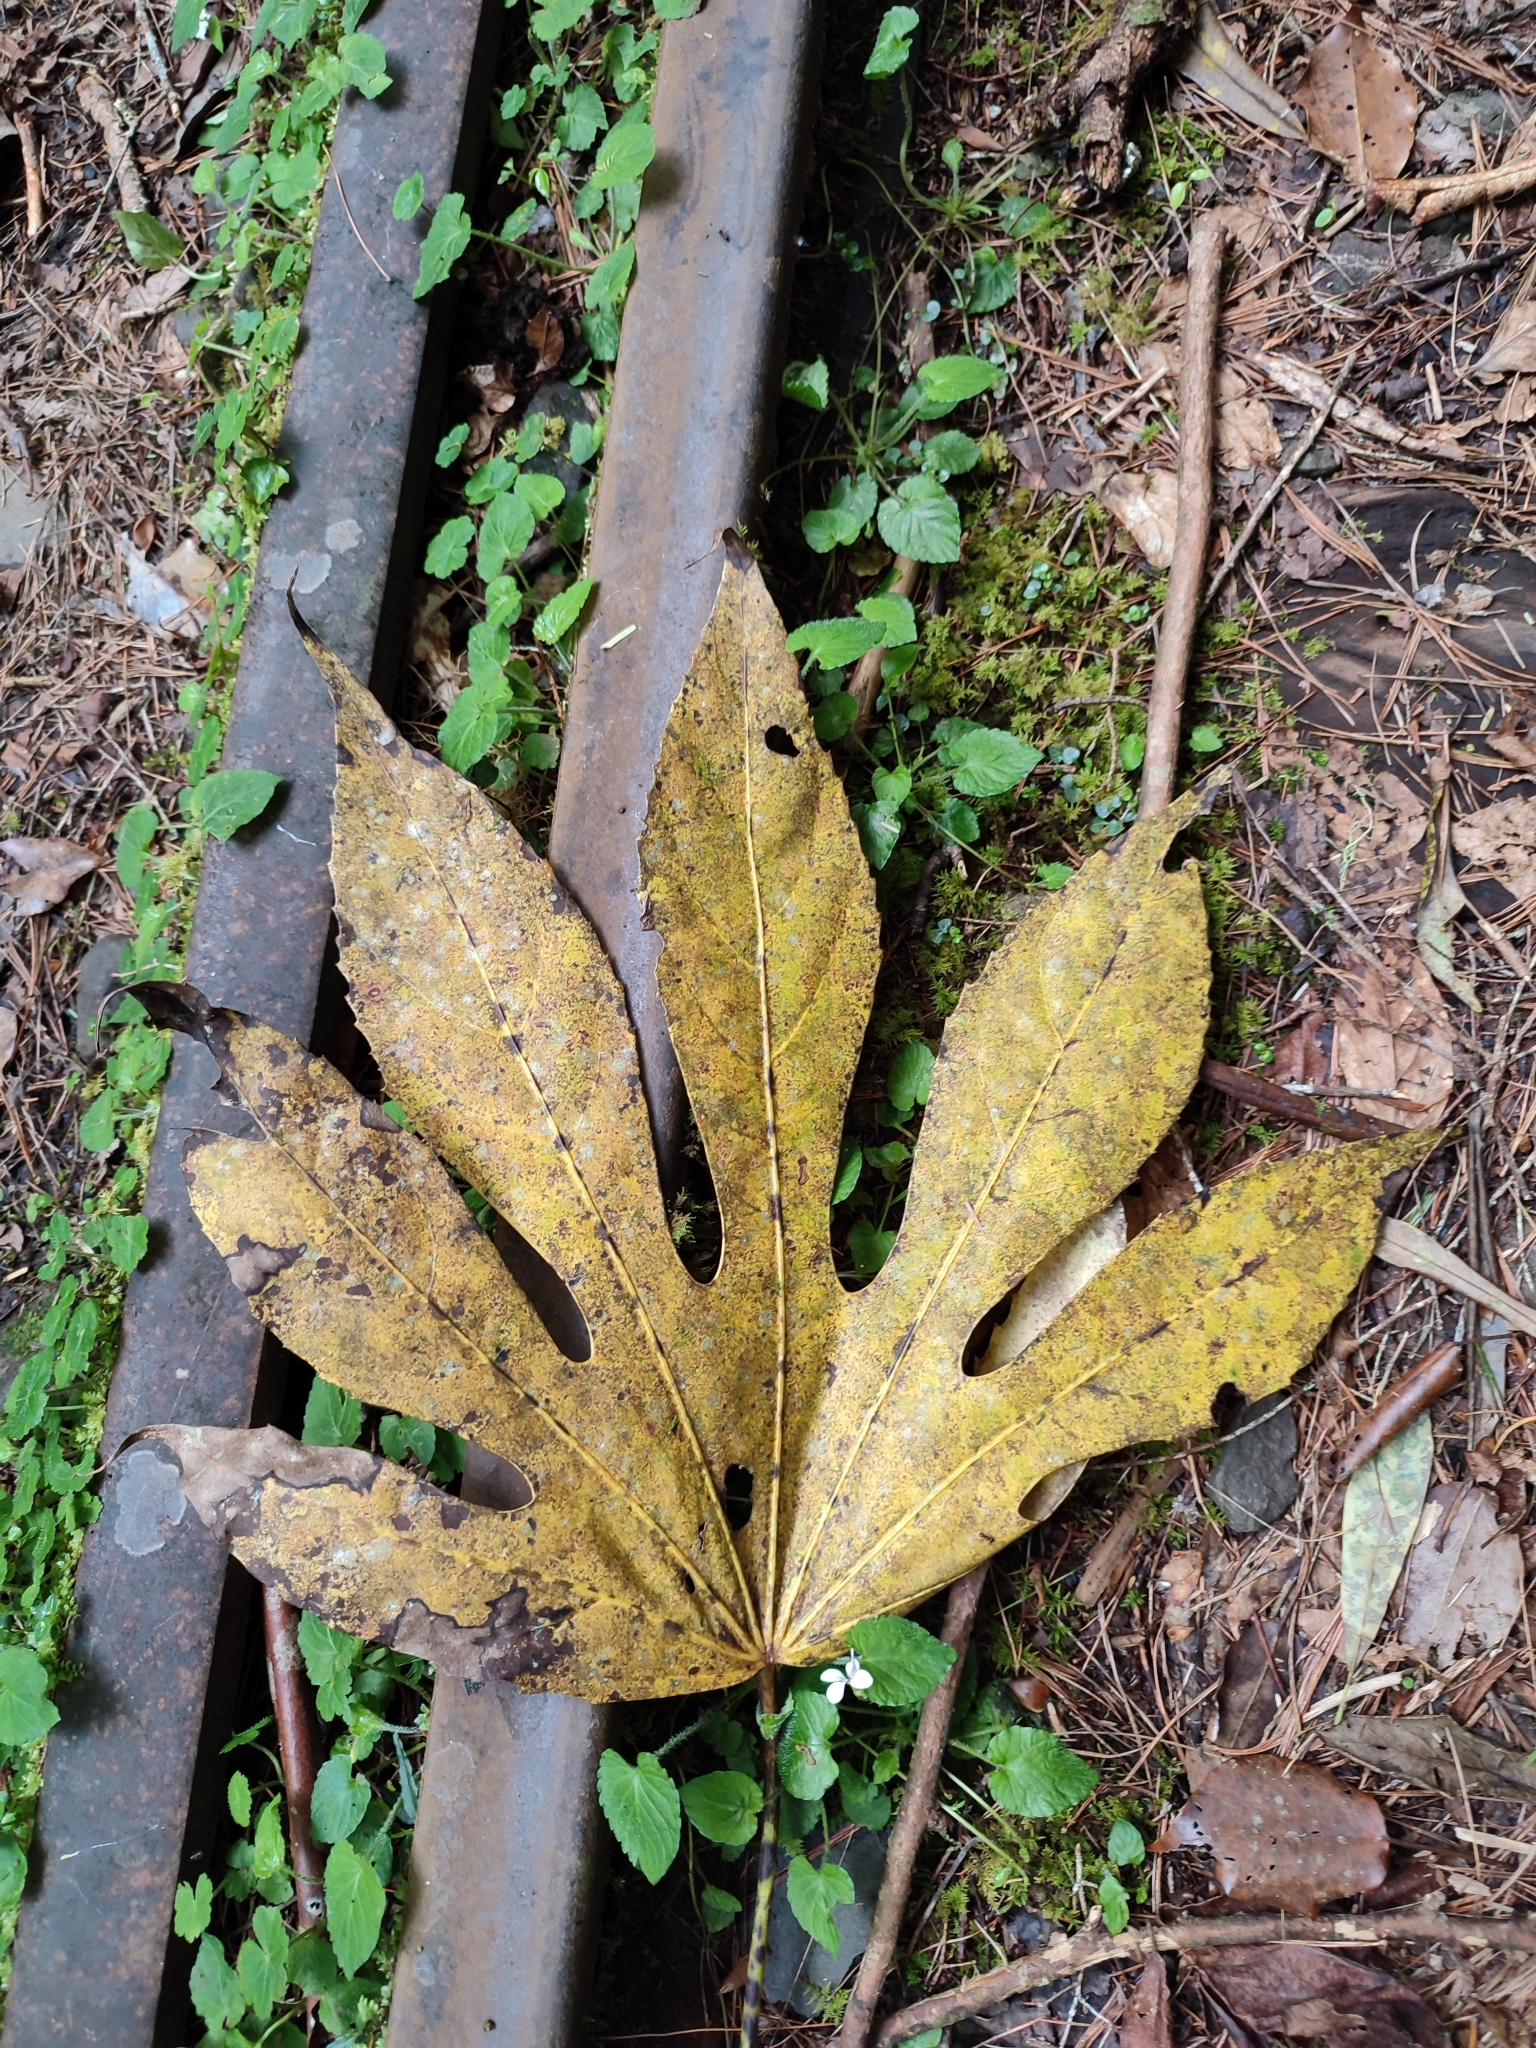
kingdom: Plantae
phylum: Tracheophyta
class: Magnoliopsida
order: Apiales
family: Araliaceae
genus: Fatsia
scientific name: Fatsia polycarpa
